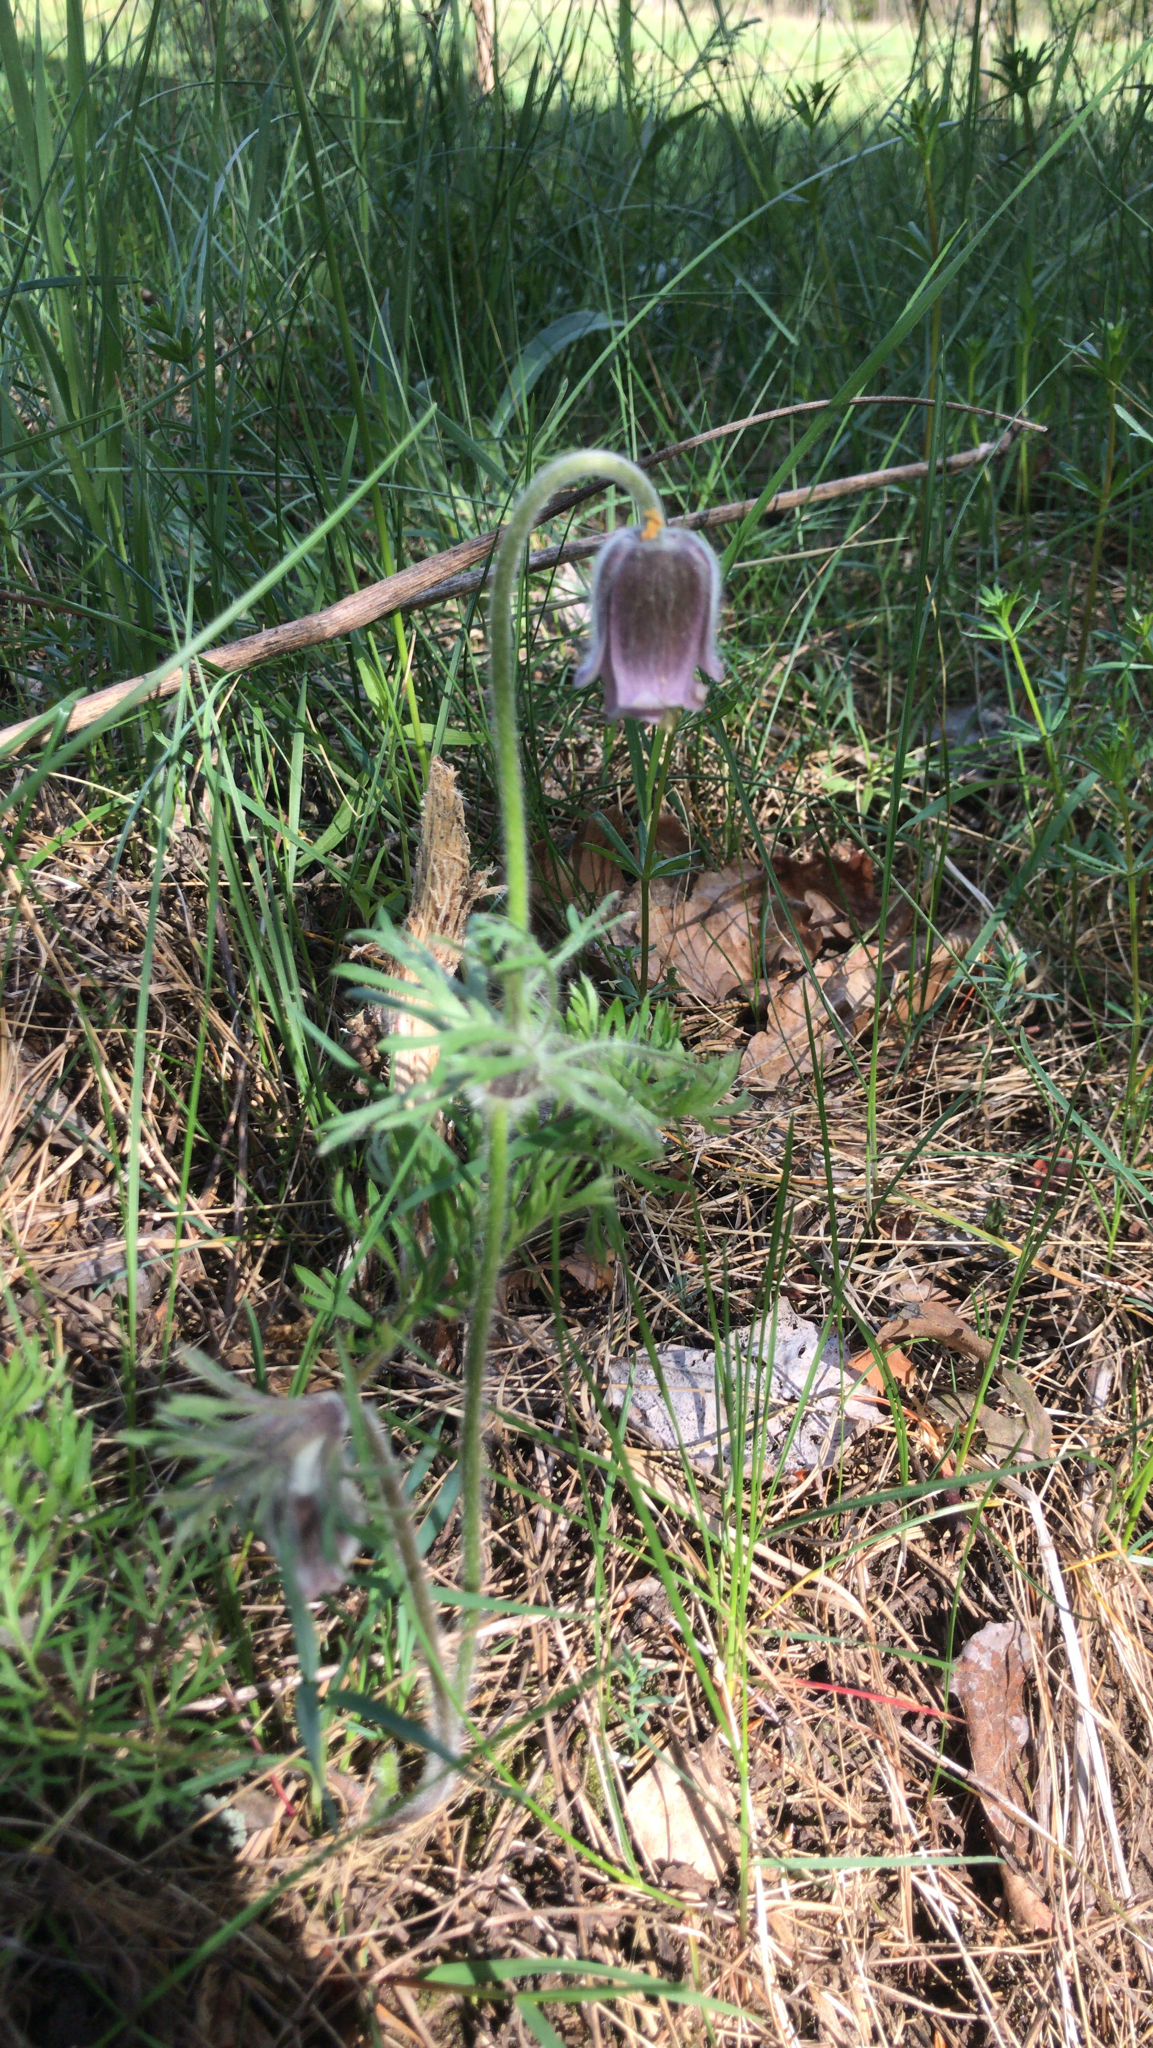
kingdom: Plantae
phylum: Tracheophyta
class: Magnoliopsida
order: Ranunculales
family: Ranunculaceae
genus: Pulsatilla
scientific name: Pulsatilla pratensis
